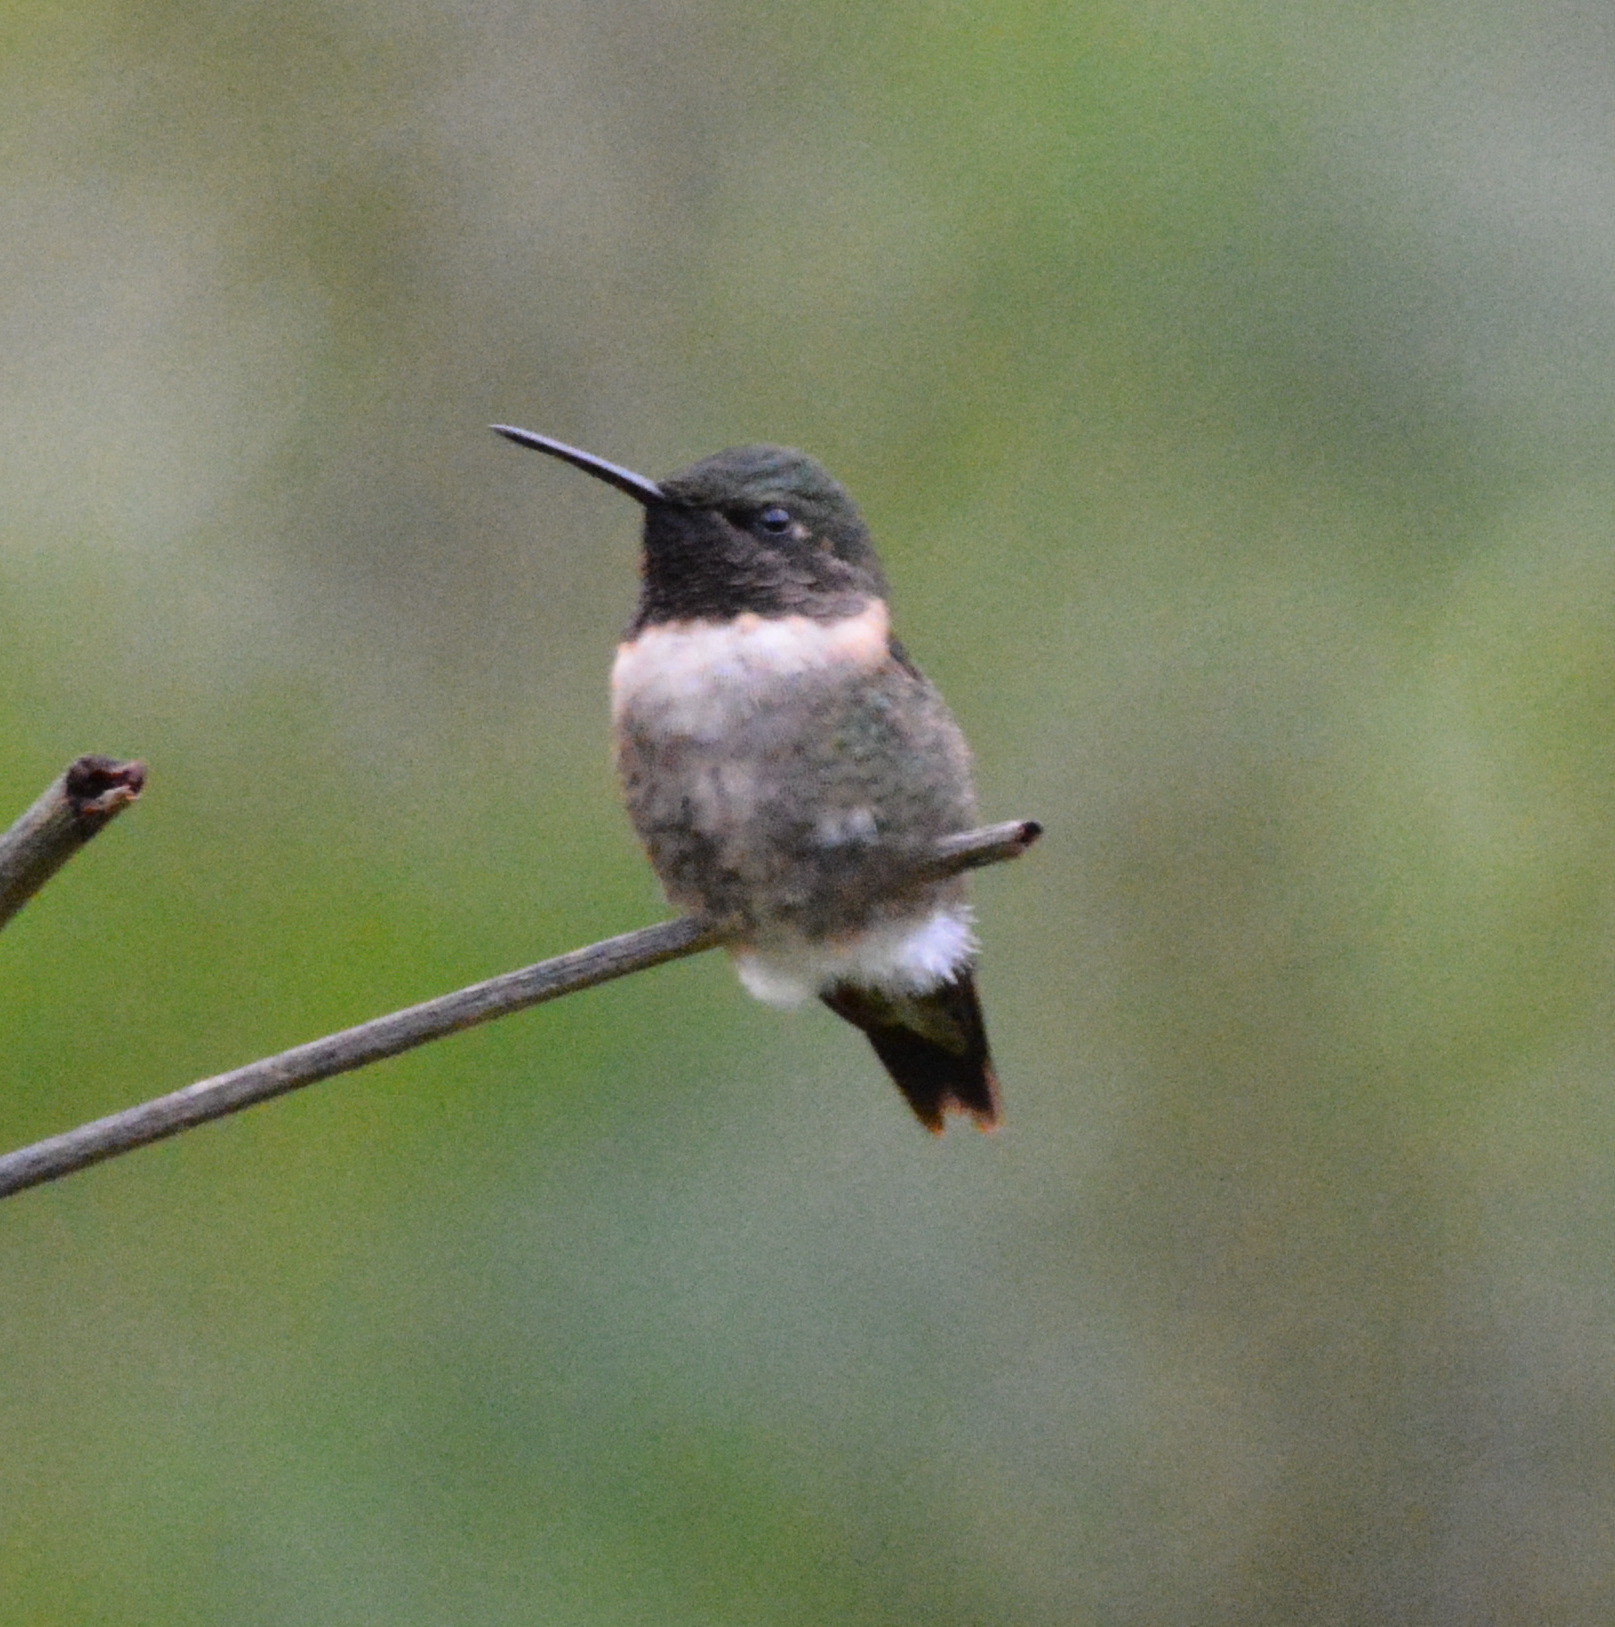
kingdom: Animalia
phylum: Chordata
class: Aves
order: Apodiformes
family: Trochilidae
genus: Archilochus
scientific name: Archilochus colubris
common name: Ruby-throated hummingbird
